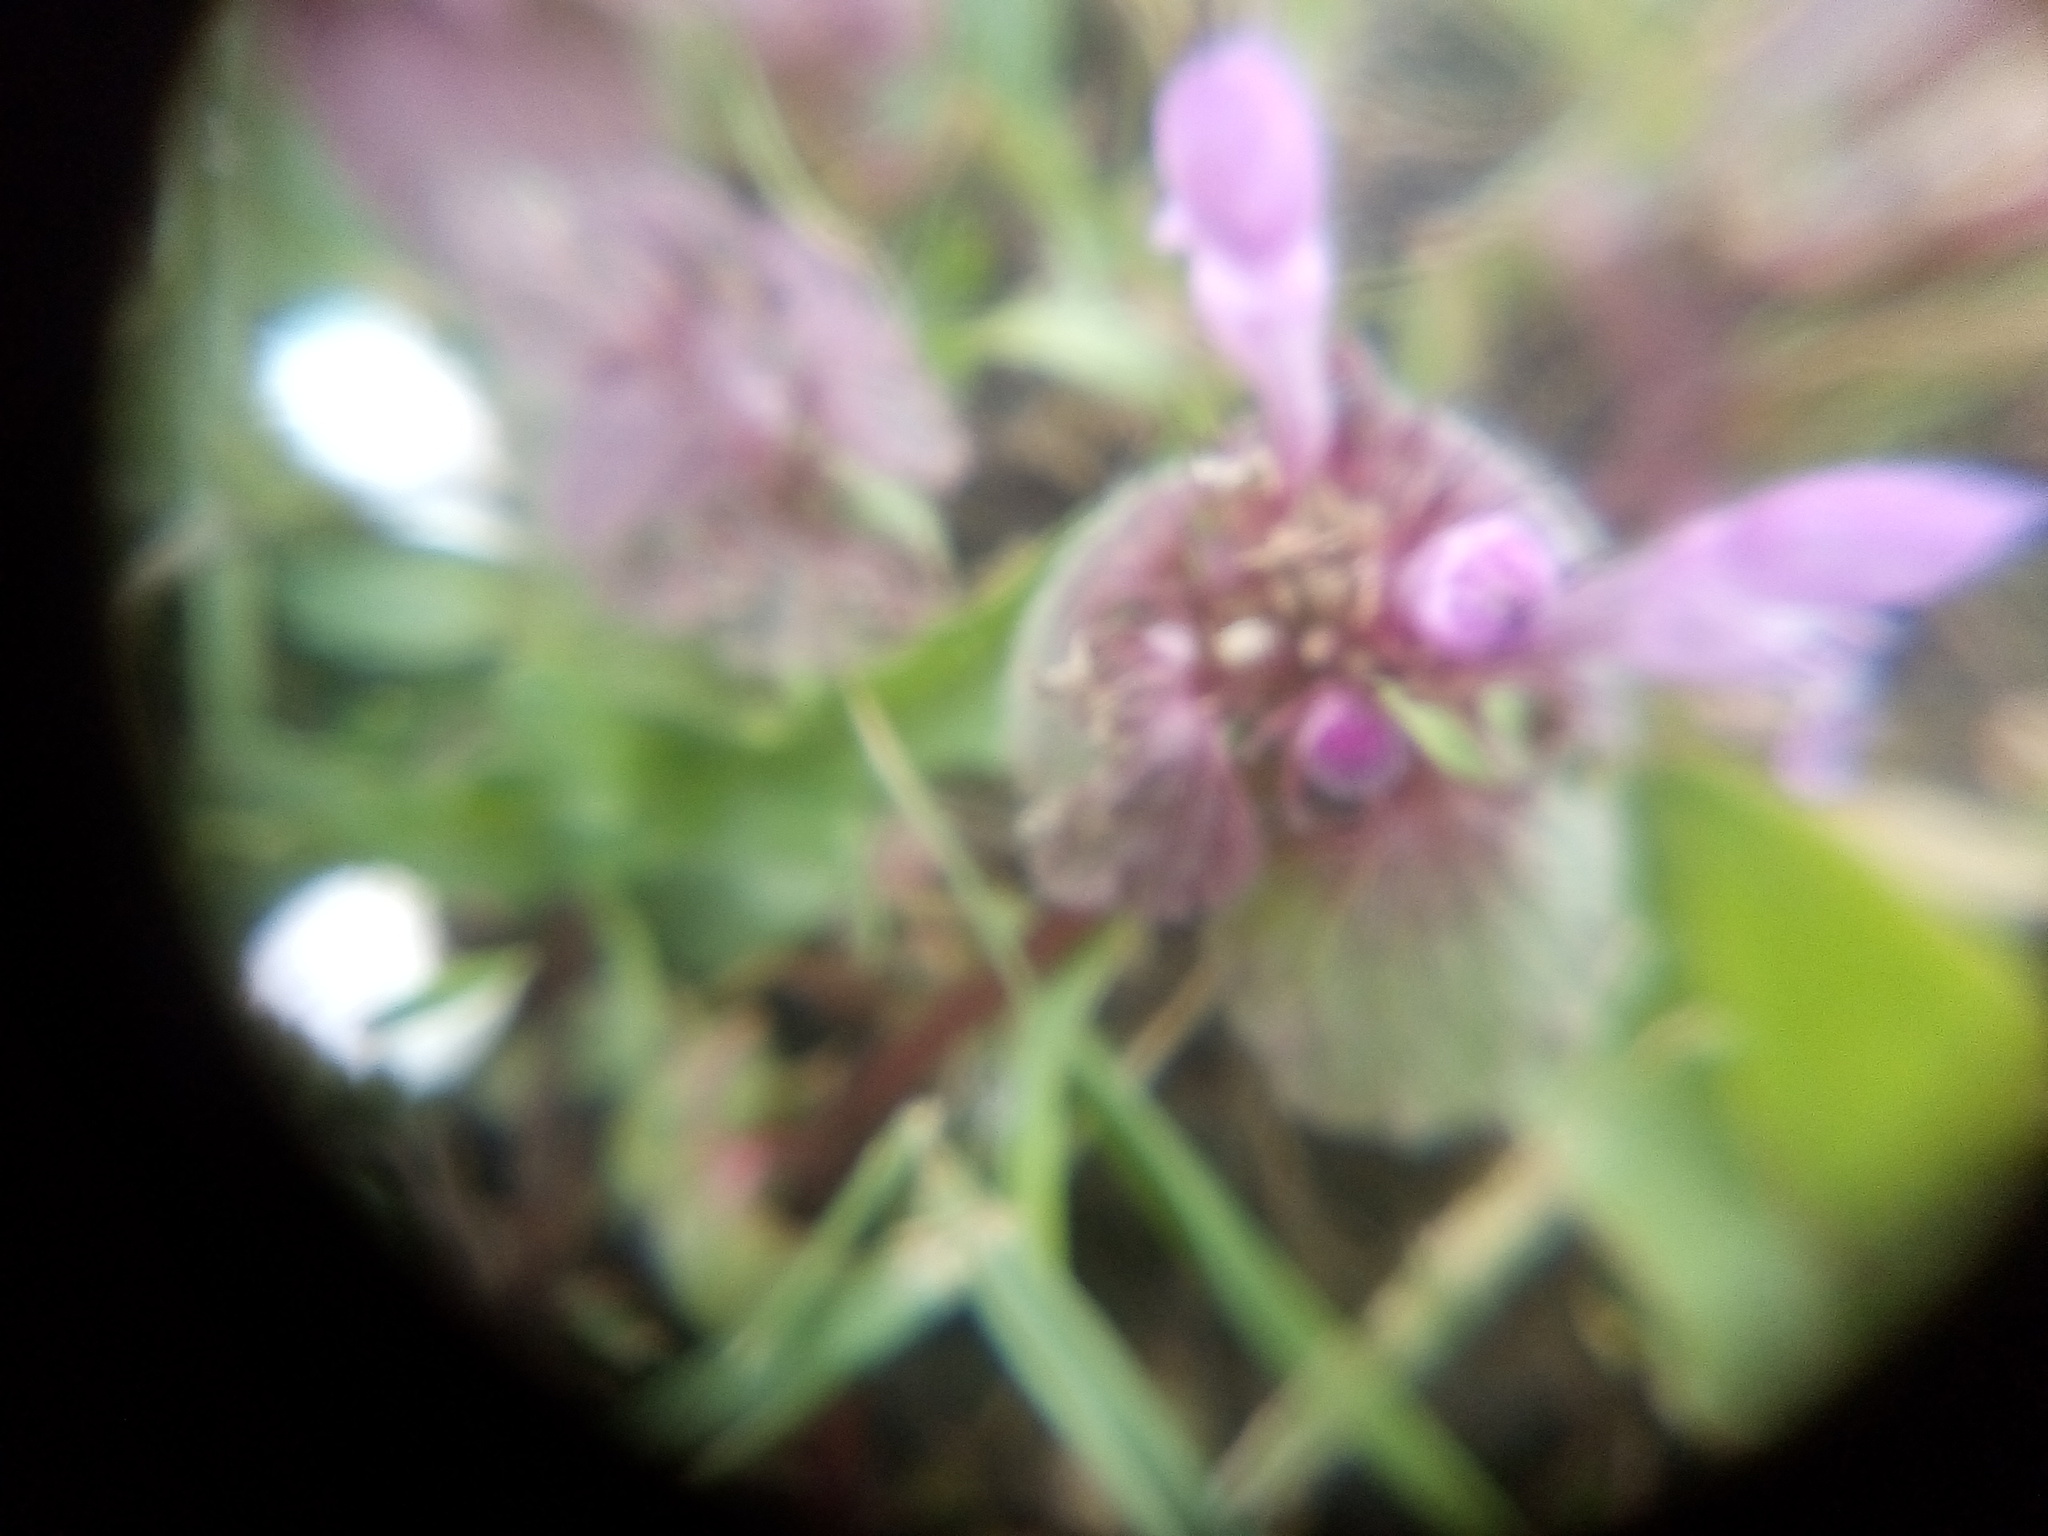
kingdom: Plantae
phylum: Tracheophyta
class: Magnoliopsida
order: Lamiales
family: Lamiaceae
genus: Lamium
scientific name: Lamium purpureum
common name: Red dead-nettle
